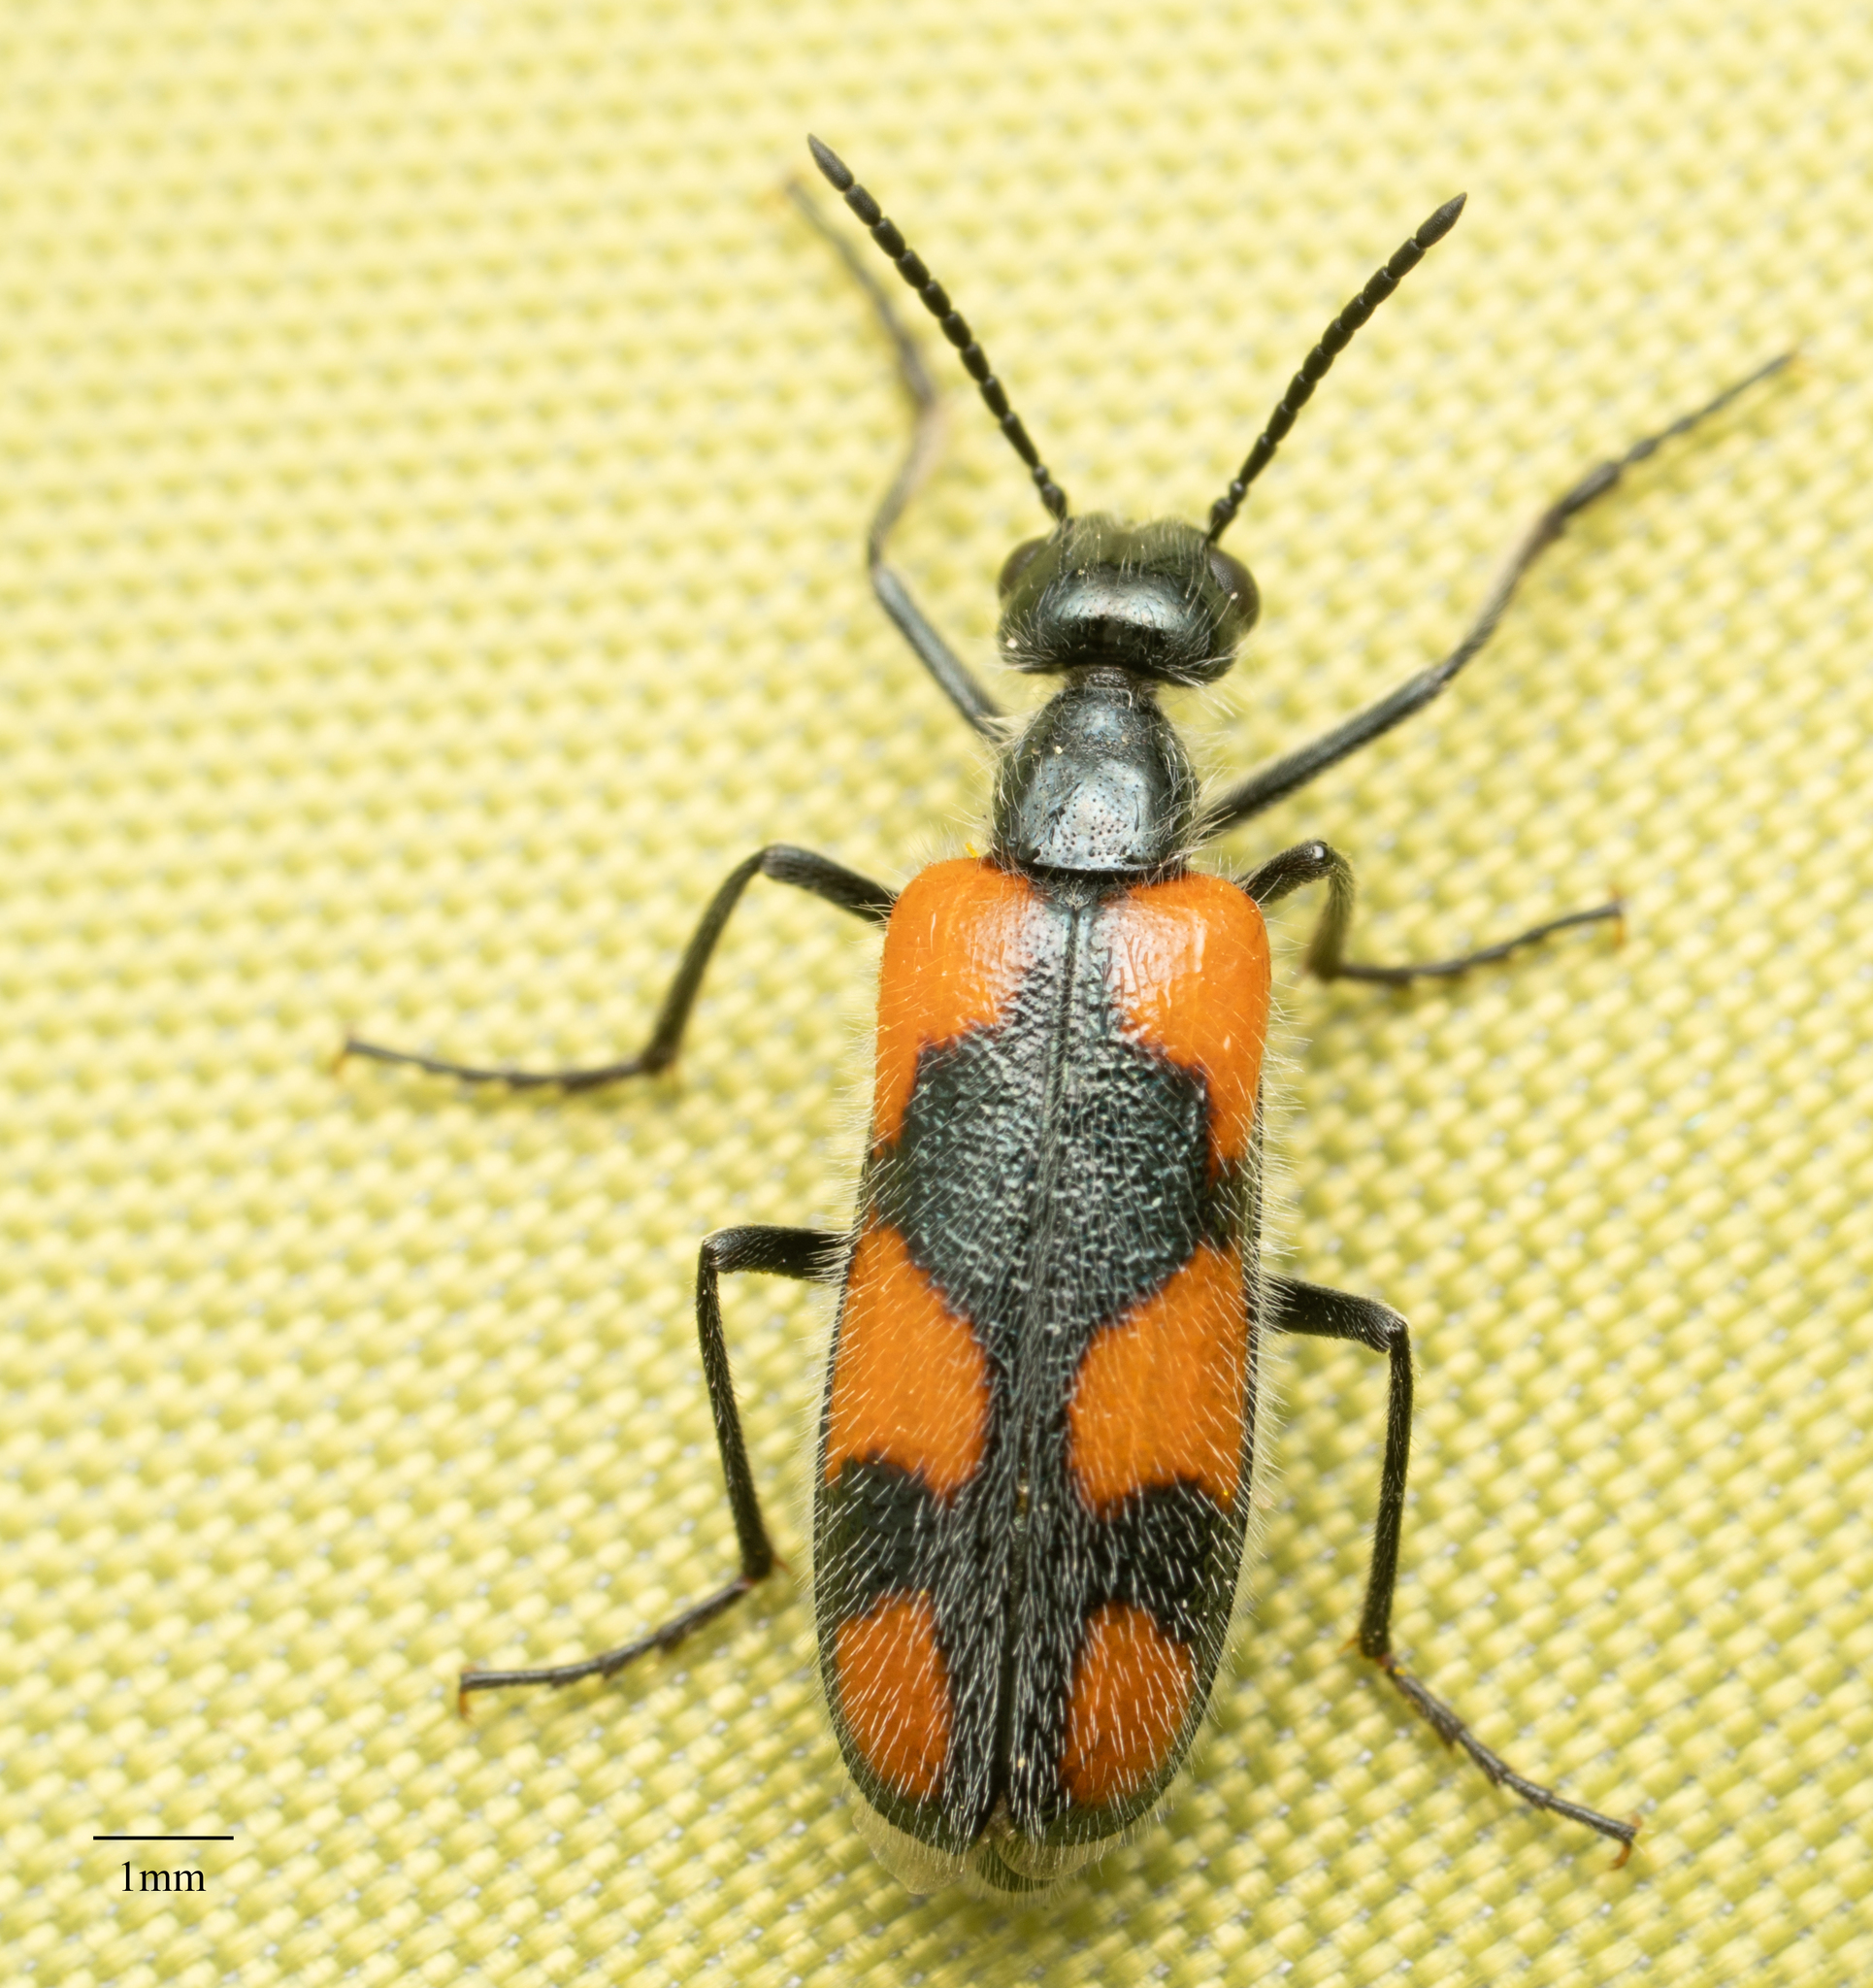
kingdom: Animalia
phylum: Arthropoda
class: Insecta
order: Coleoptera
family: Meloidae
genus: Eupompha
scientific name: Eupompha elegans
